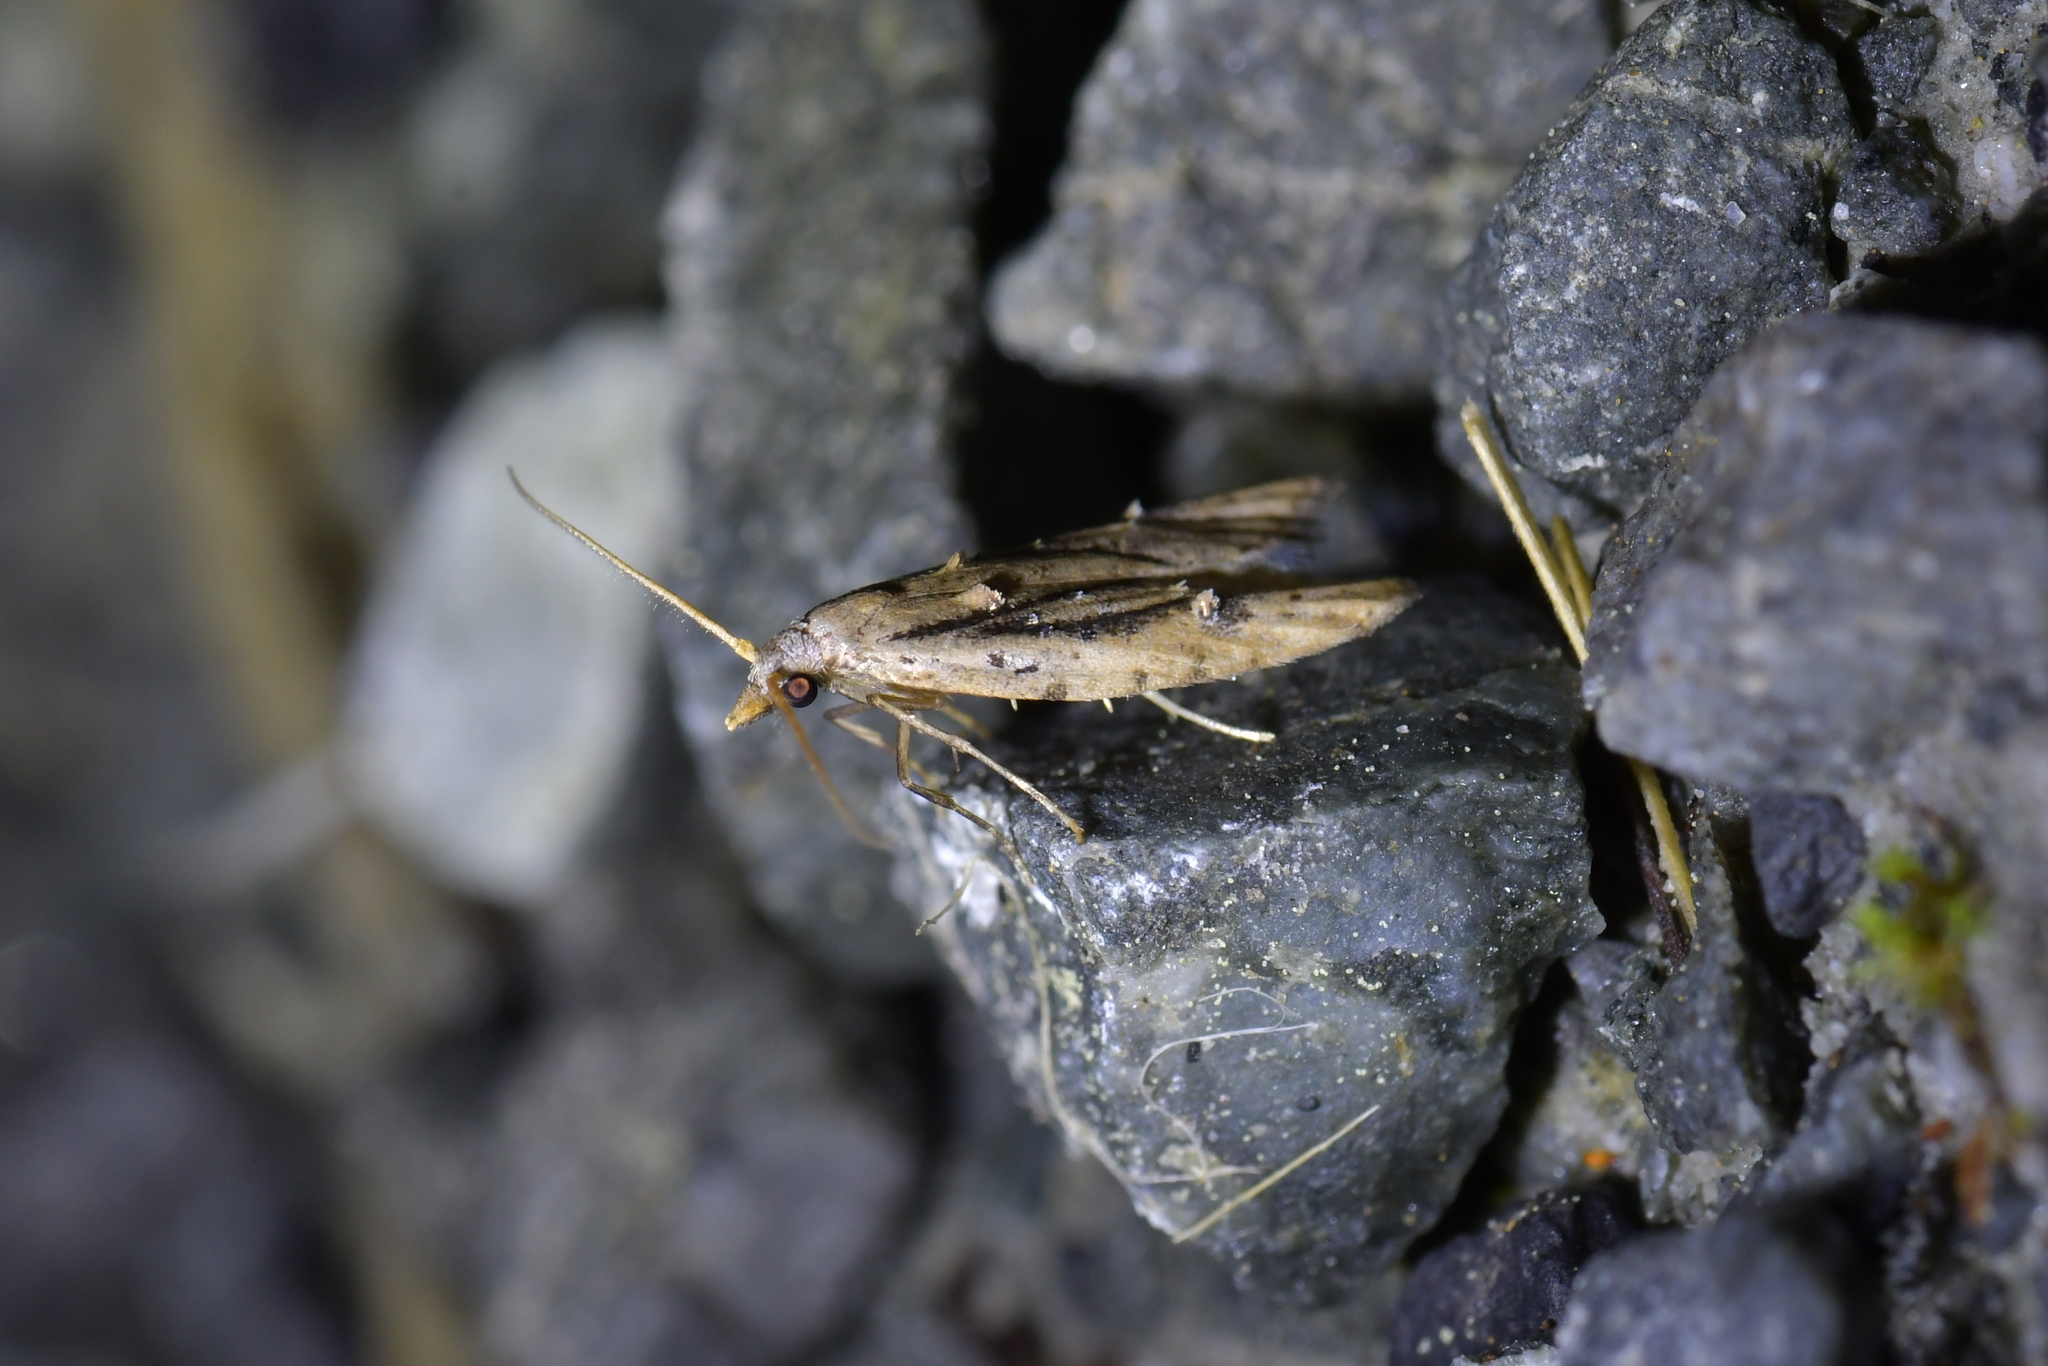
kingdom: Animalia
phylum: Arthropoda
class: Insecta
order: Lepidoptera
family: Carposinidae
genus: Carposina
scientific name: Carposina rubophaga
